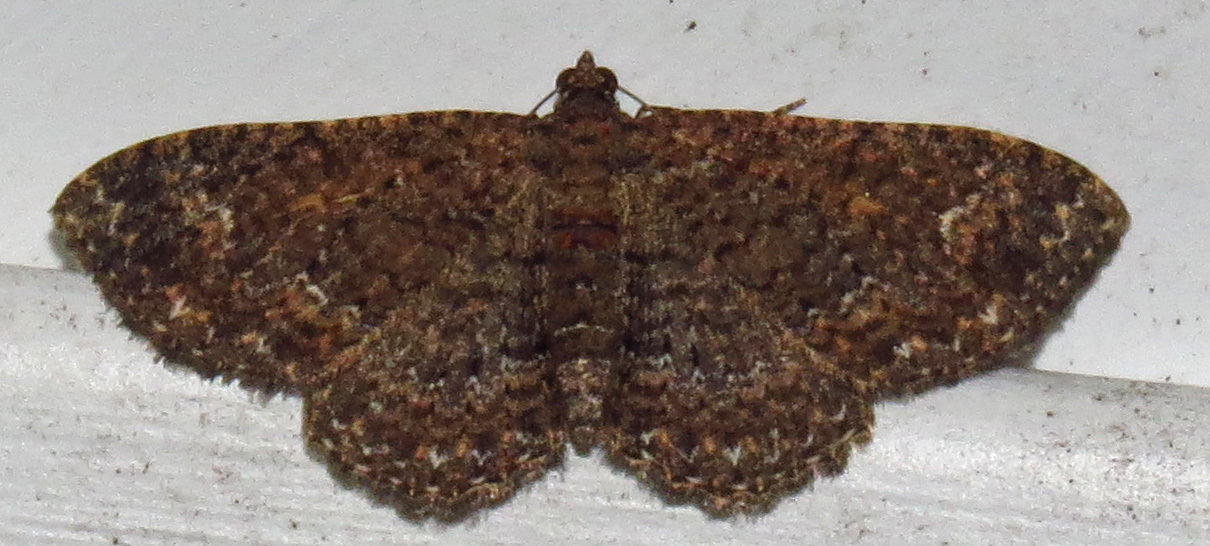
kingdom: Animalia
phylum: Arthropoda
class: Insecta
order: Lepidoptera
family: Geometridae
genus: Disclisioprocta
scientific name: Disclisioprocta stellata
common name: Somber carpet
